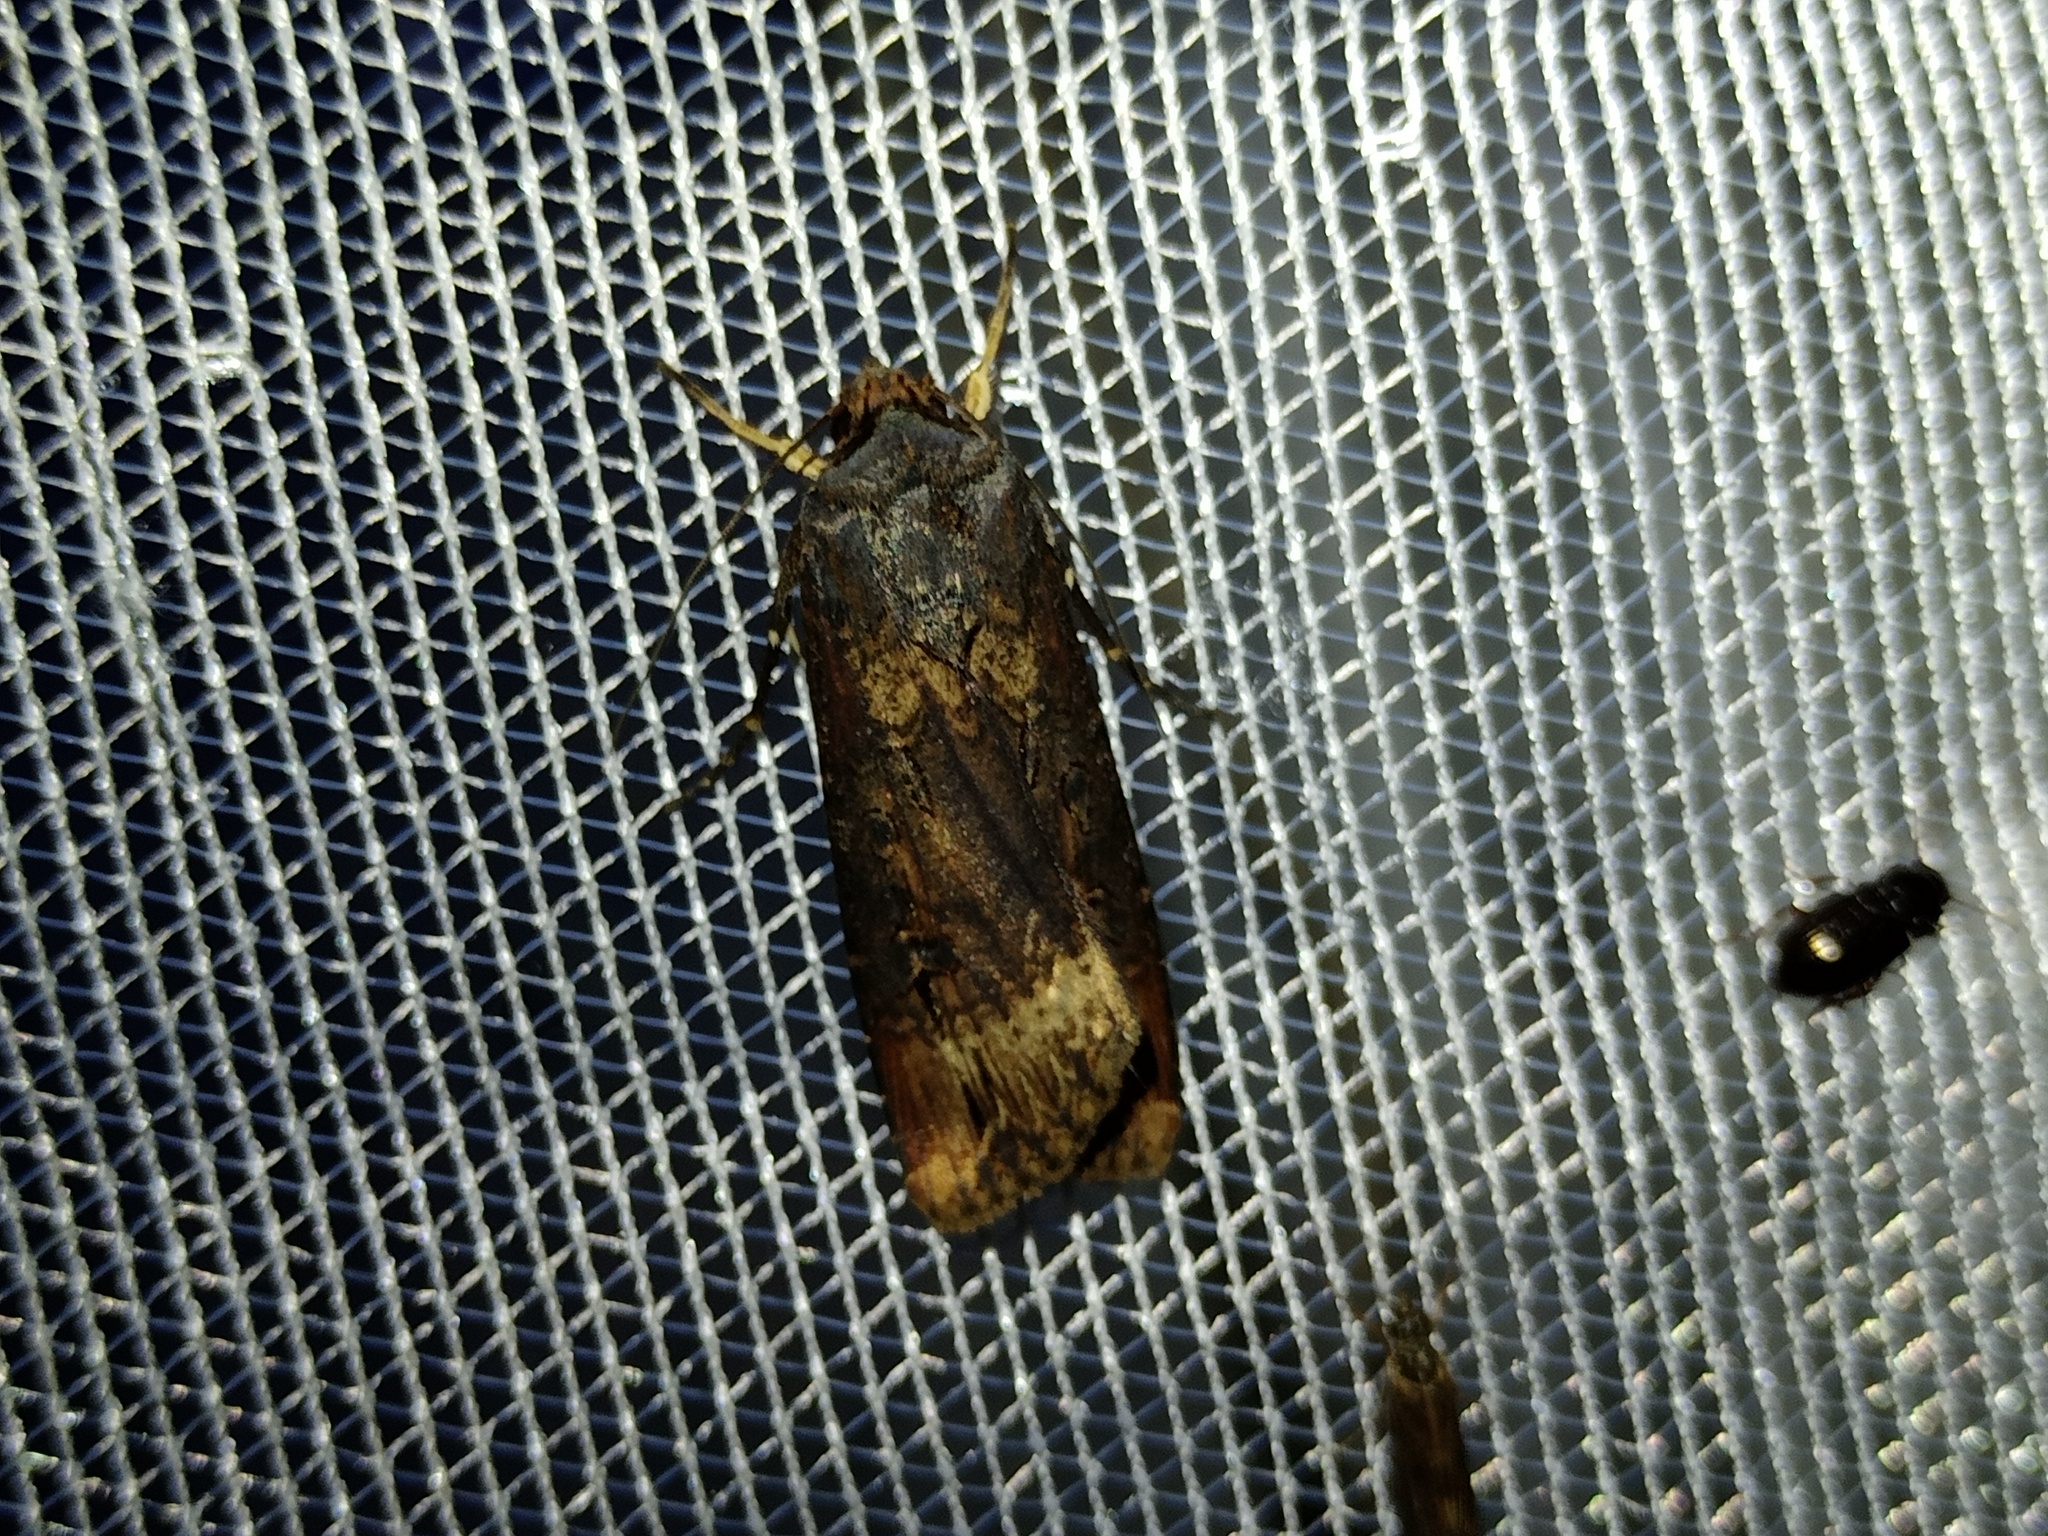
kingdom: Animalia
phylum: Arthropoda
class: Insecta
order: Lepidoptera
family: Noctuidae
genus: Agrotis
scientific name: Agrotis ipsilon
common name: Dark sword-grass
